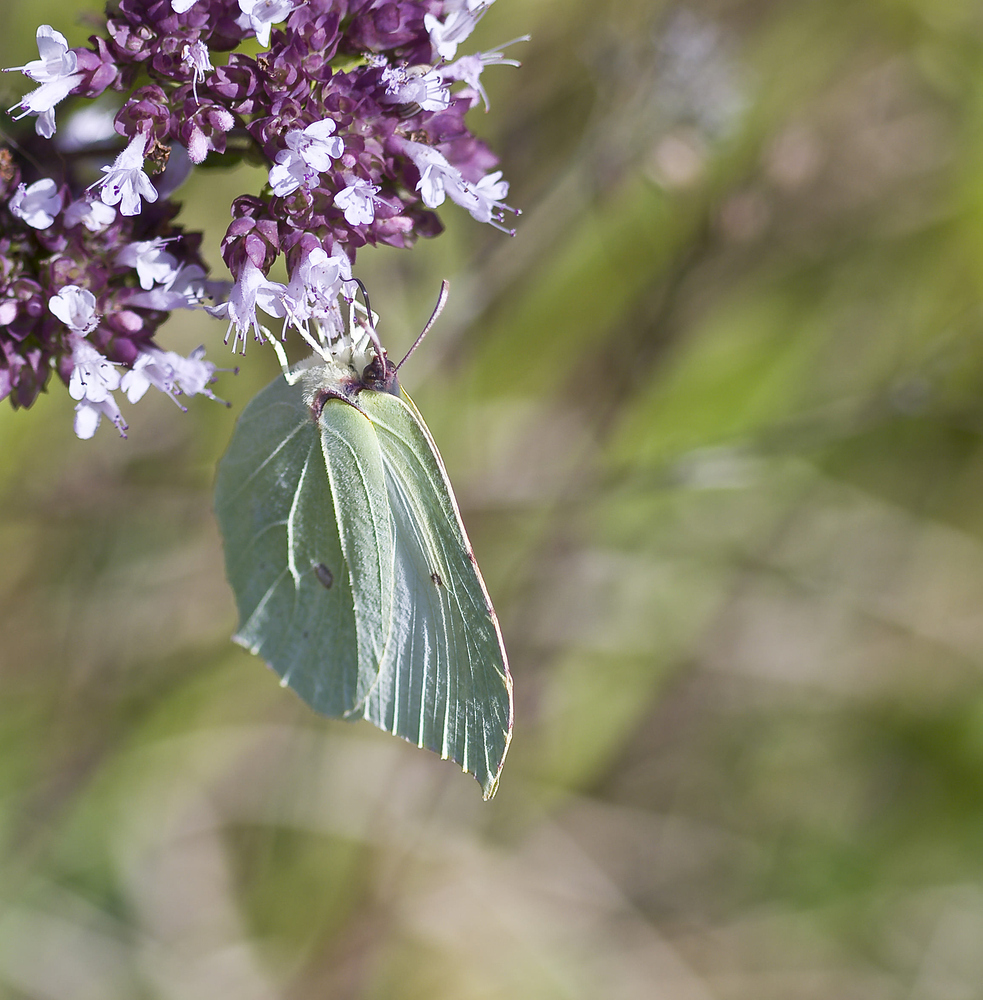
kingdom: Animalia
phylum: Arthropoda
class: Insecta
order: Lepidoptera
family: Pieridae
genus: Gonepteryx
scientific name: Gonepteryx rhamni
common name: Brimstone
